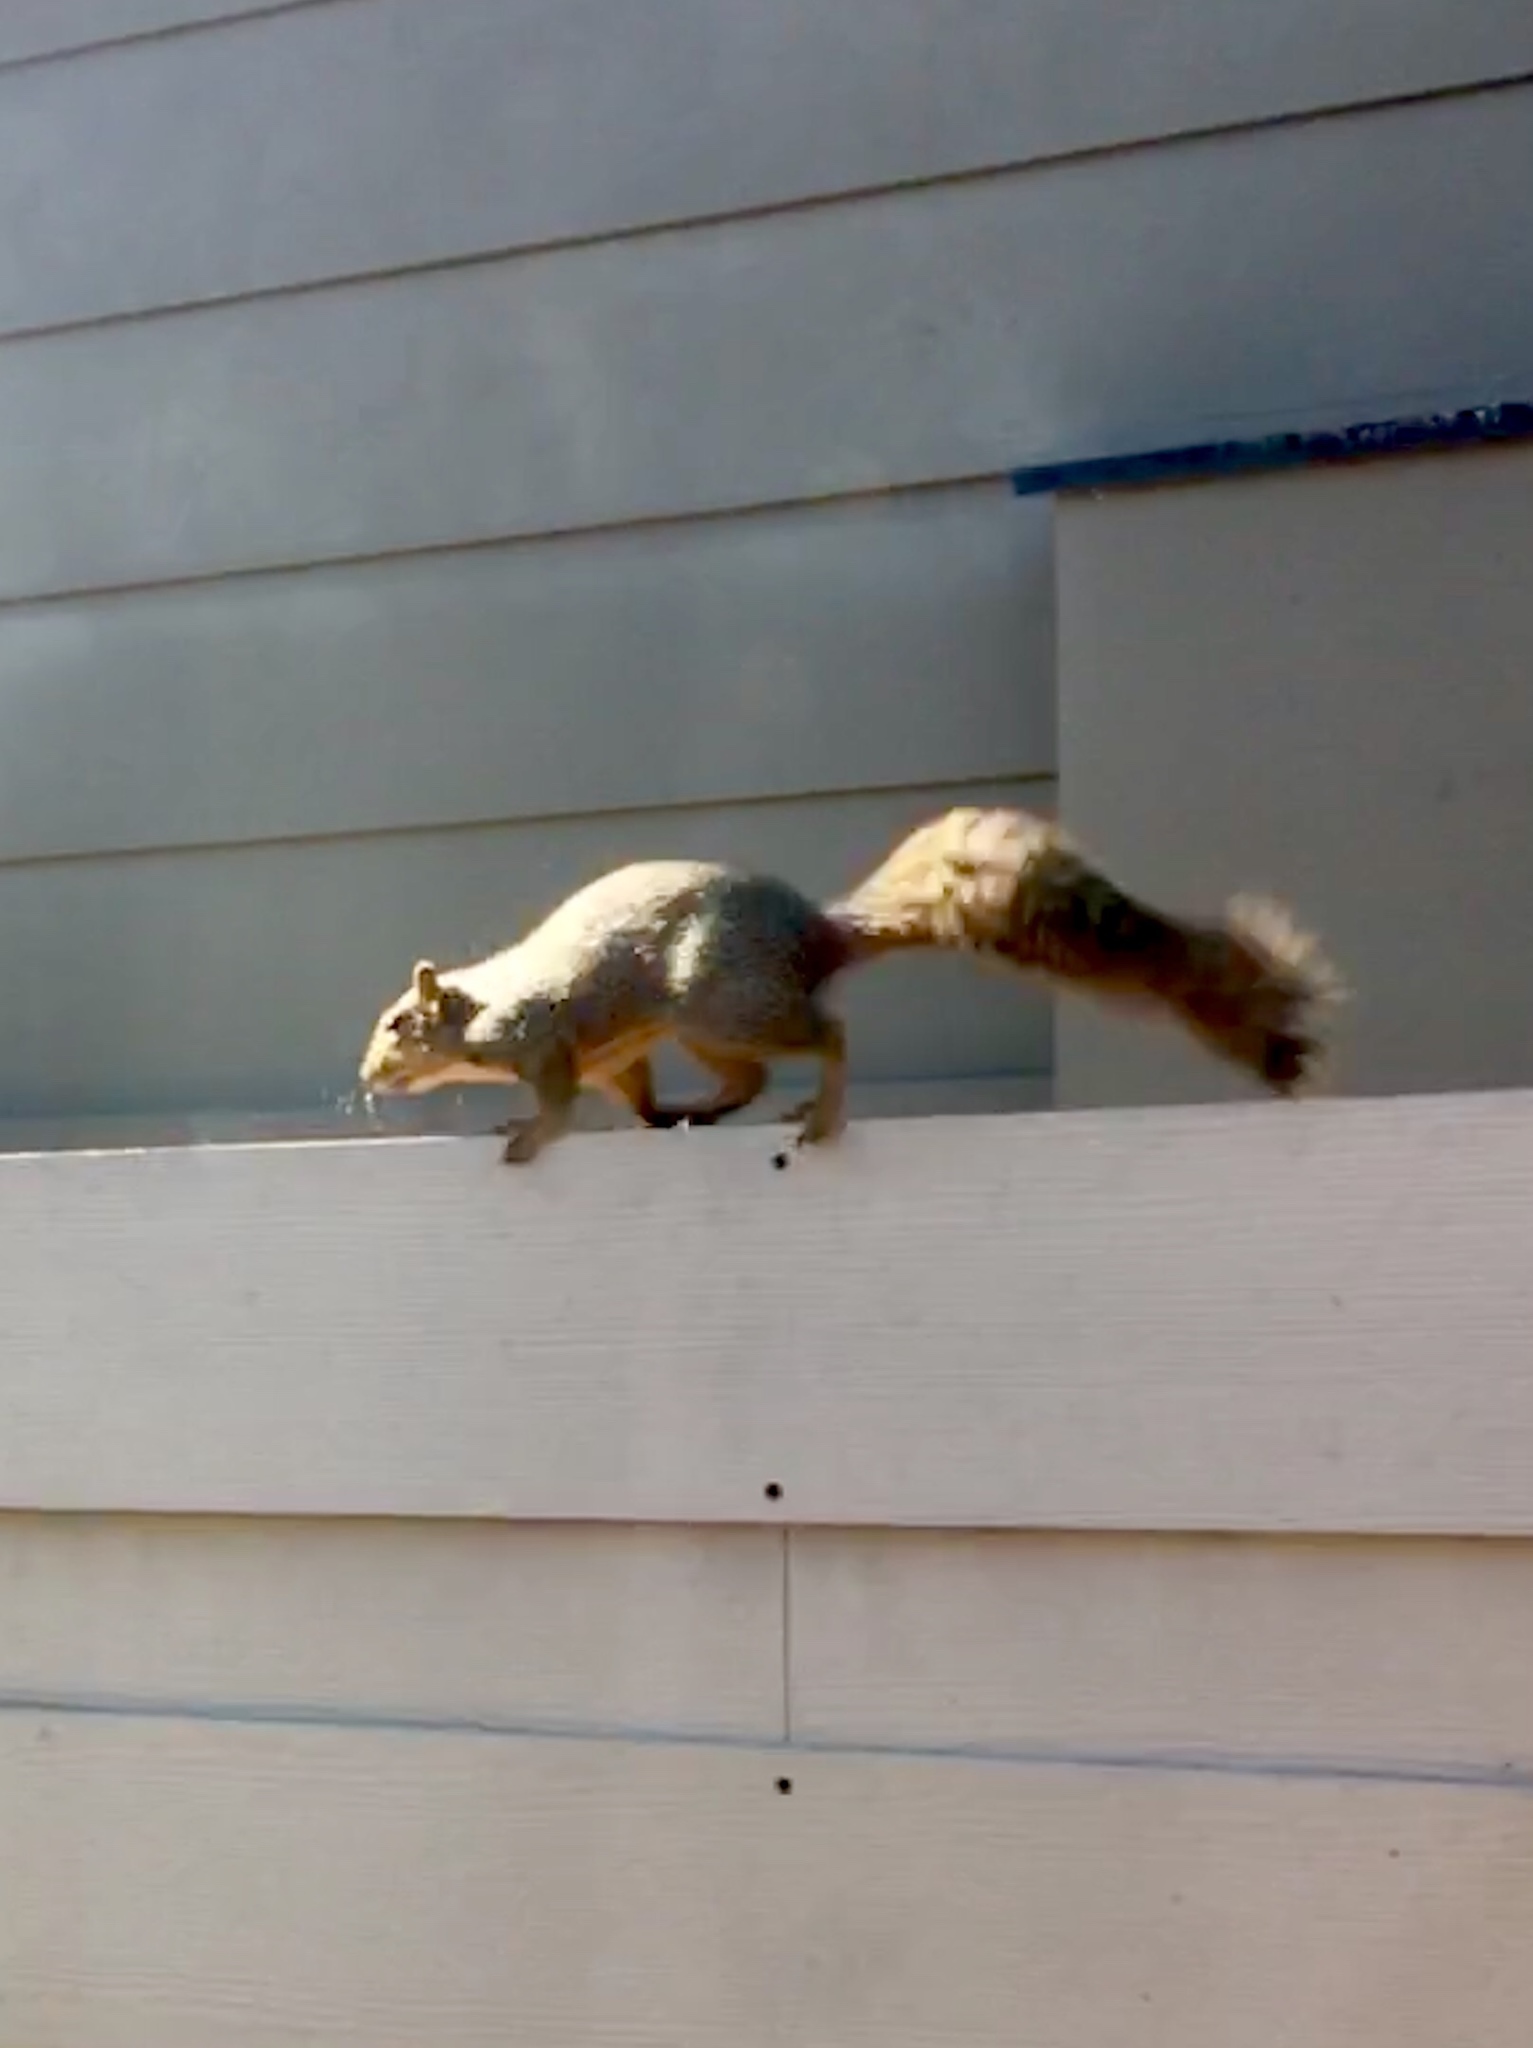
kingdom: Animalia
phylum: Chordata
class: Mammalia
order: Rodentia
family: Sciuridae
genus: Sciurus
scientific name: Sciurus niger
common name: Fox squirrel
